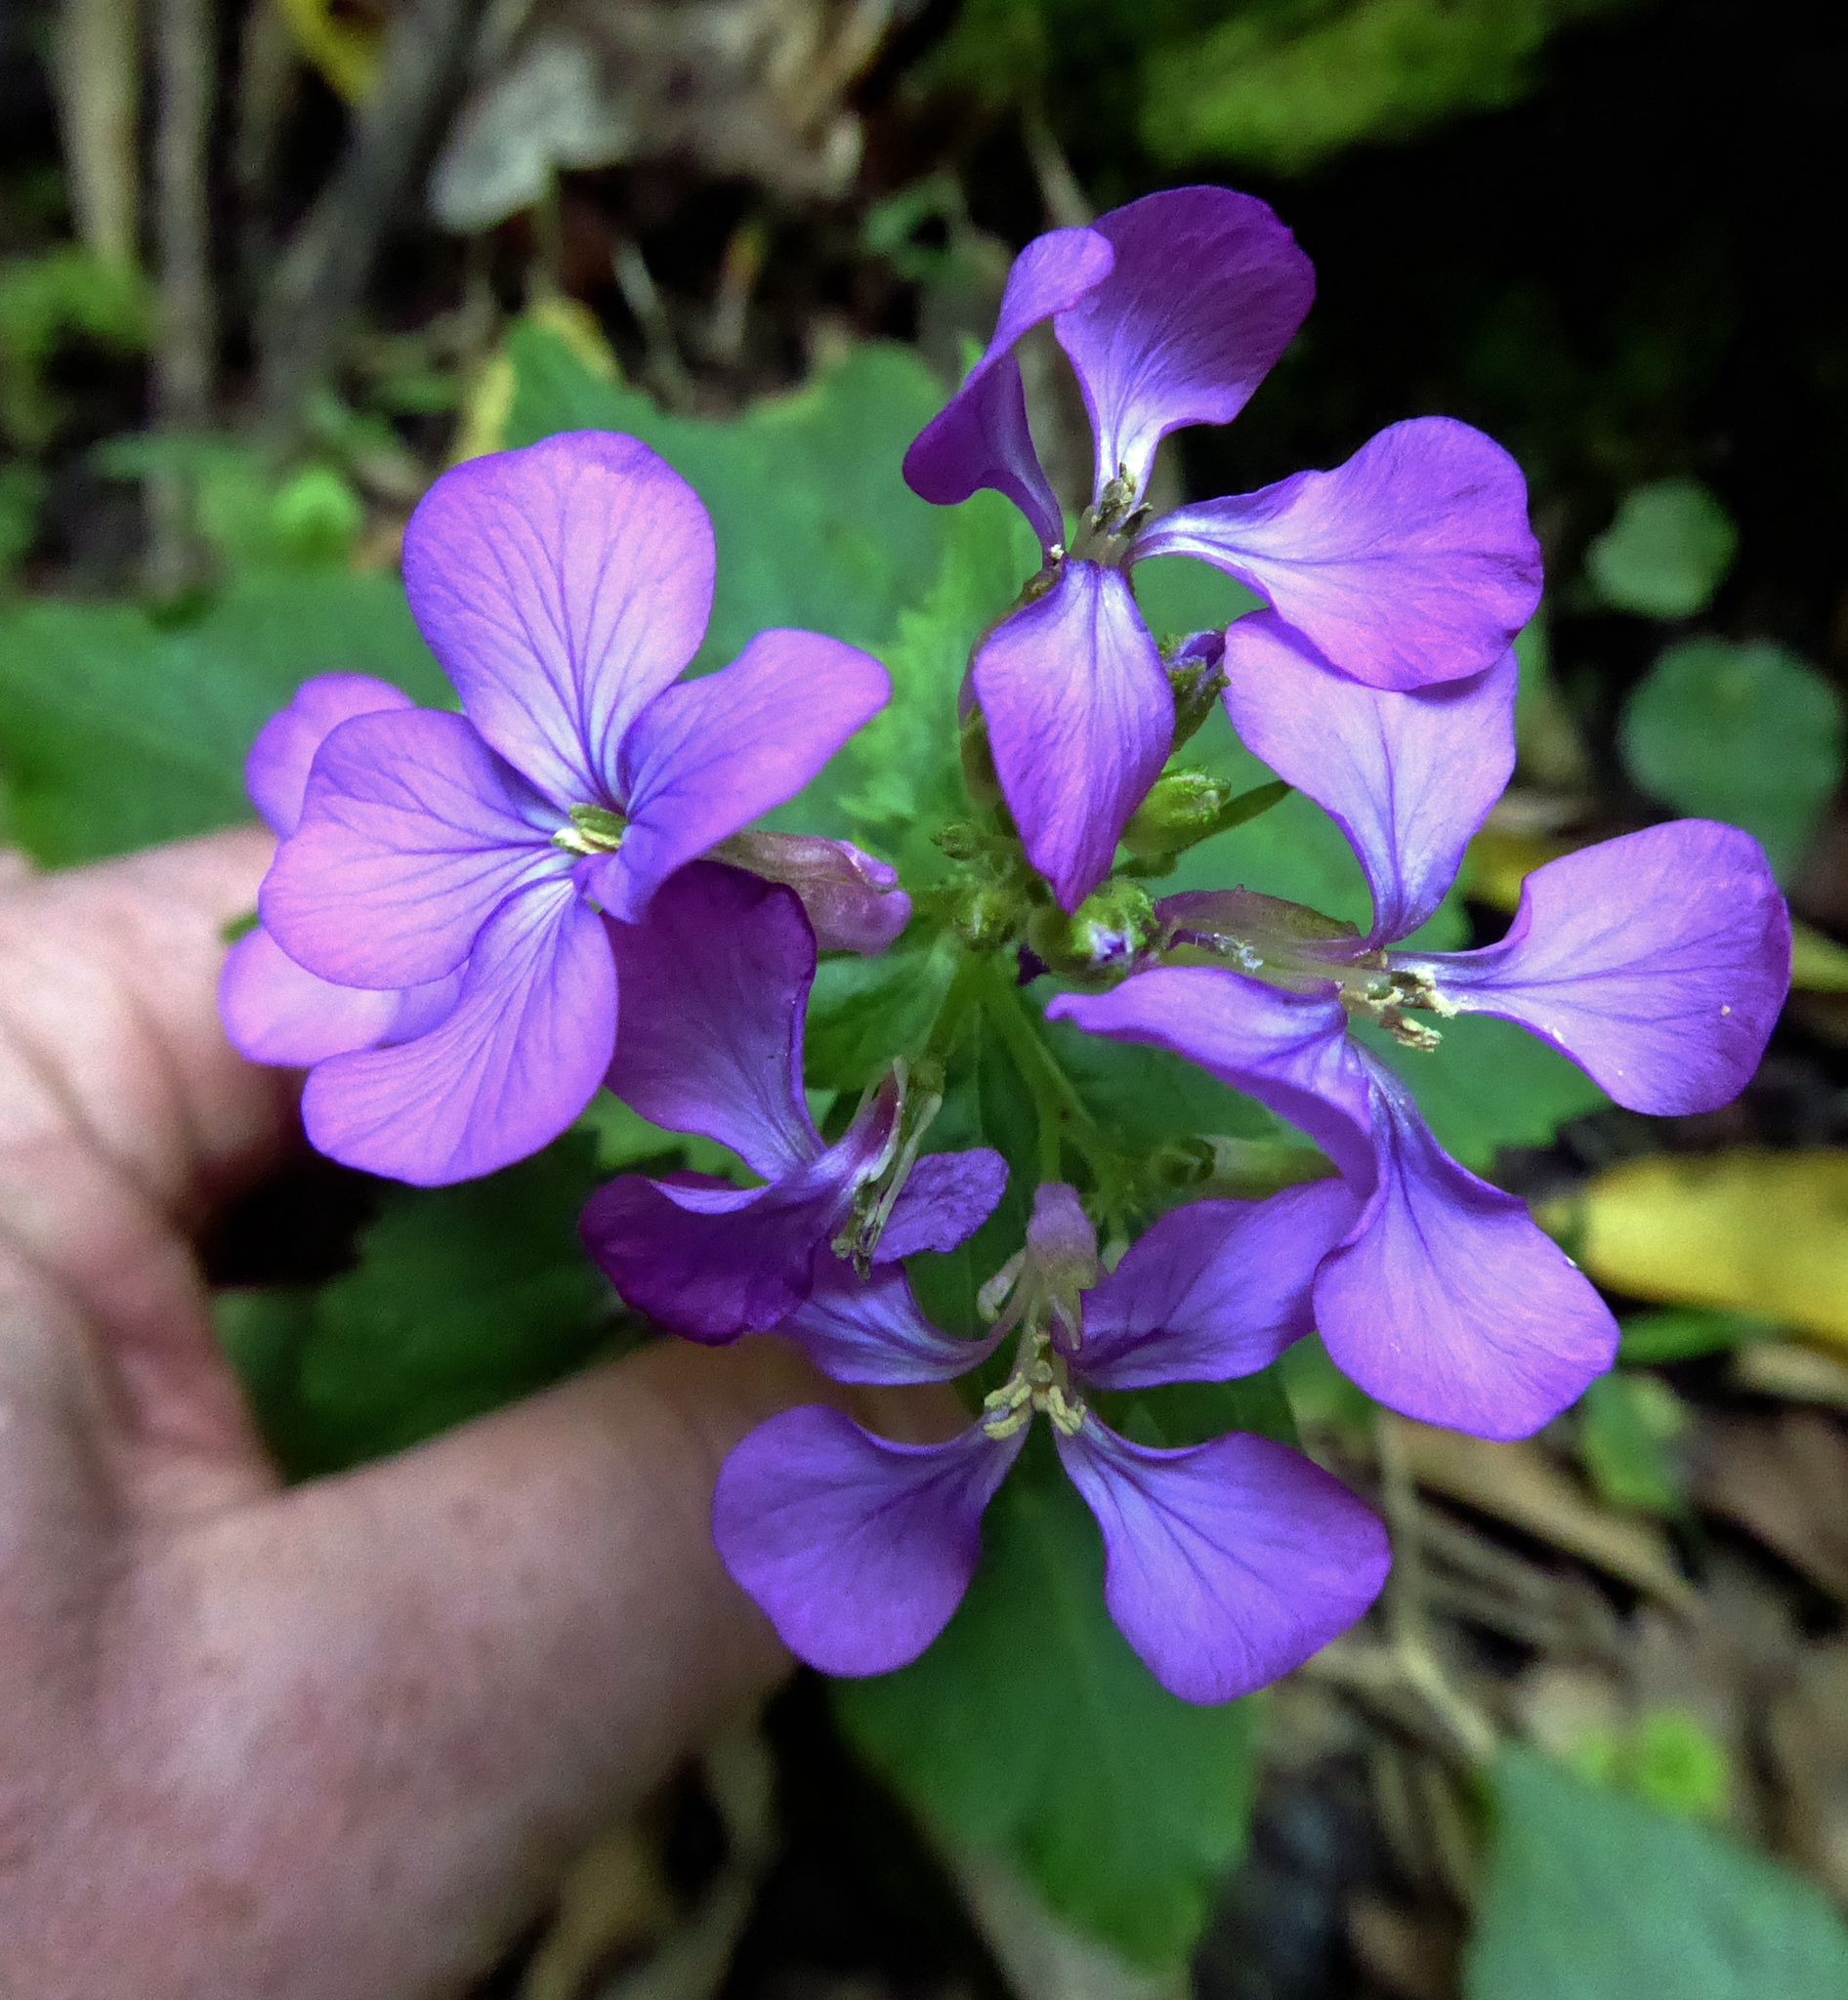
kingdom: Plantae
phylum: Tracheophyta
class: Magnoliopsida
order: Brassicales
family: Brassicaceae
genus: Lunaria
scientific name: Lunaria annua
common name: Honesty
